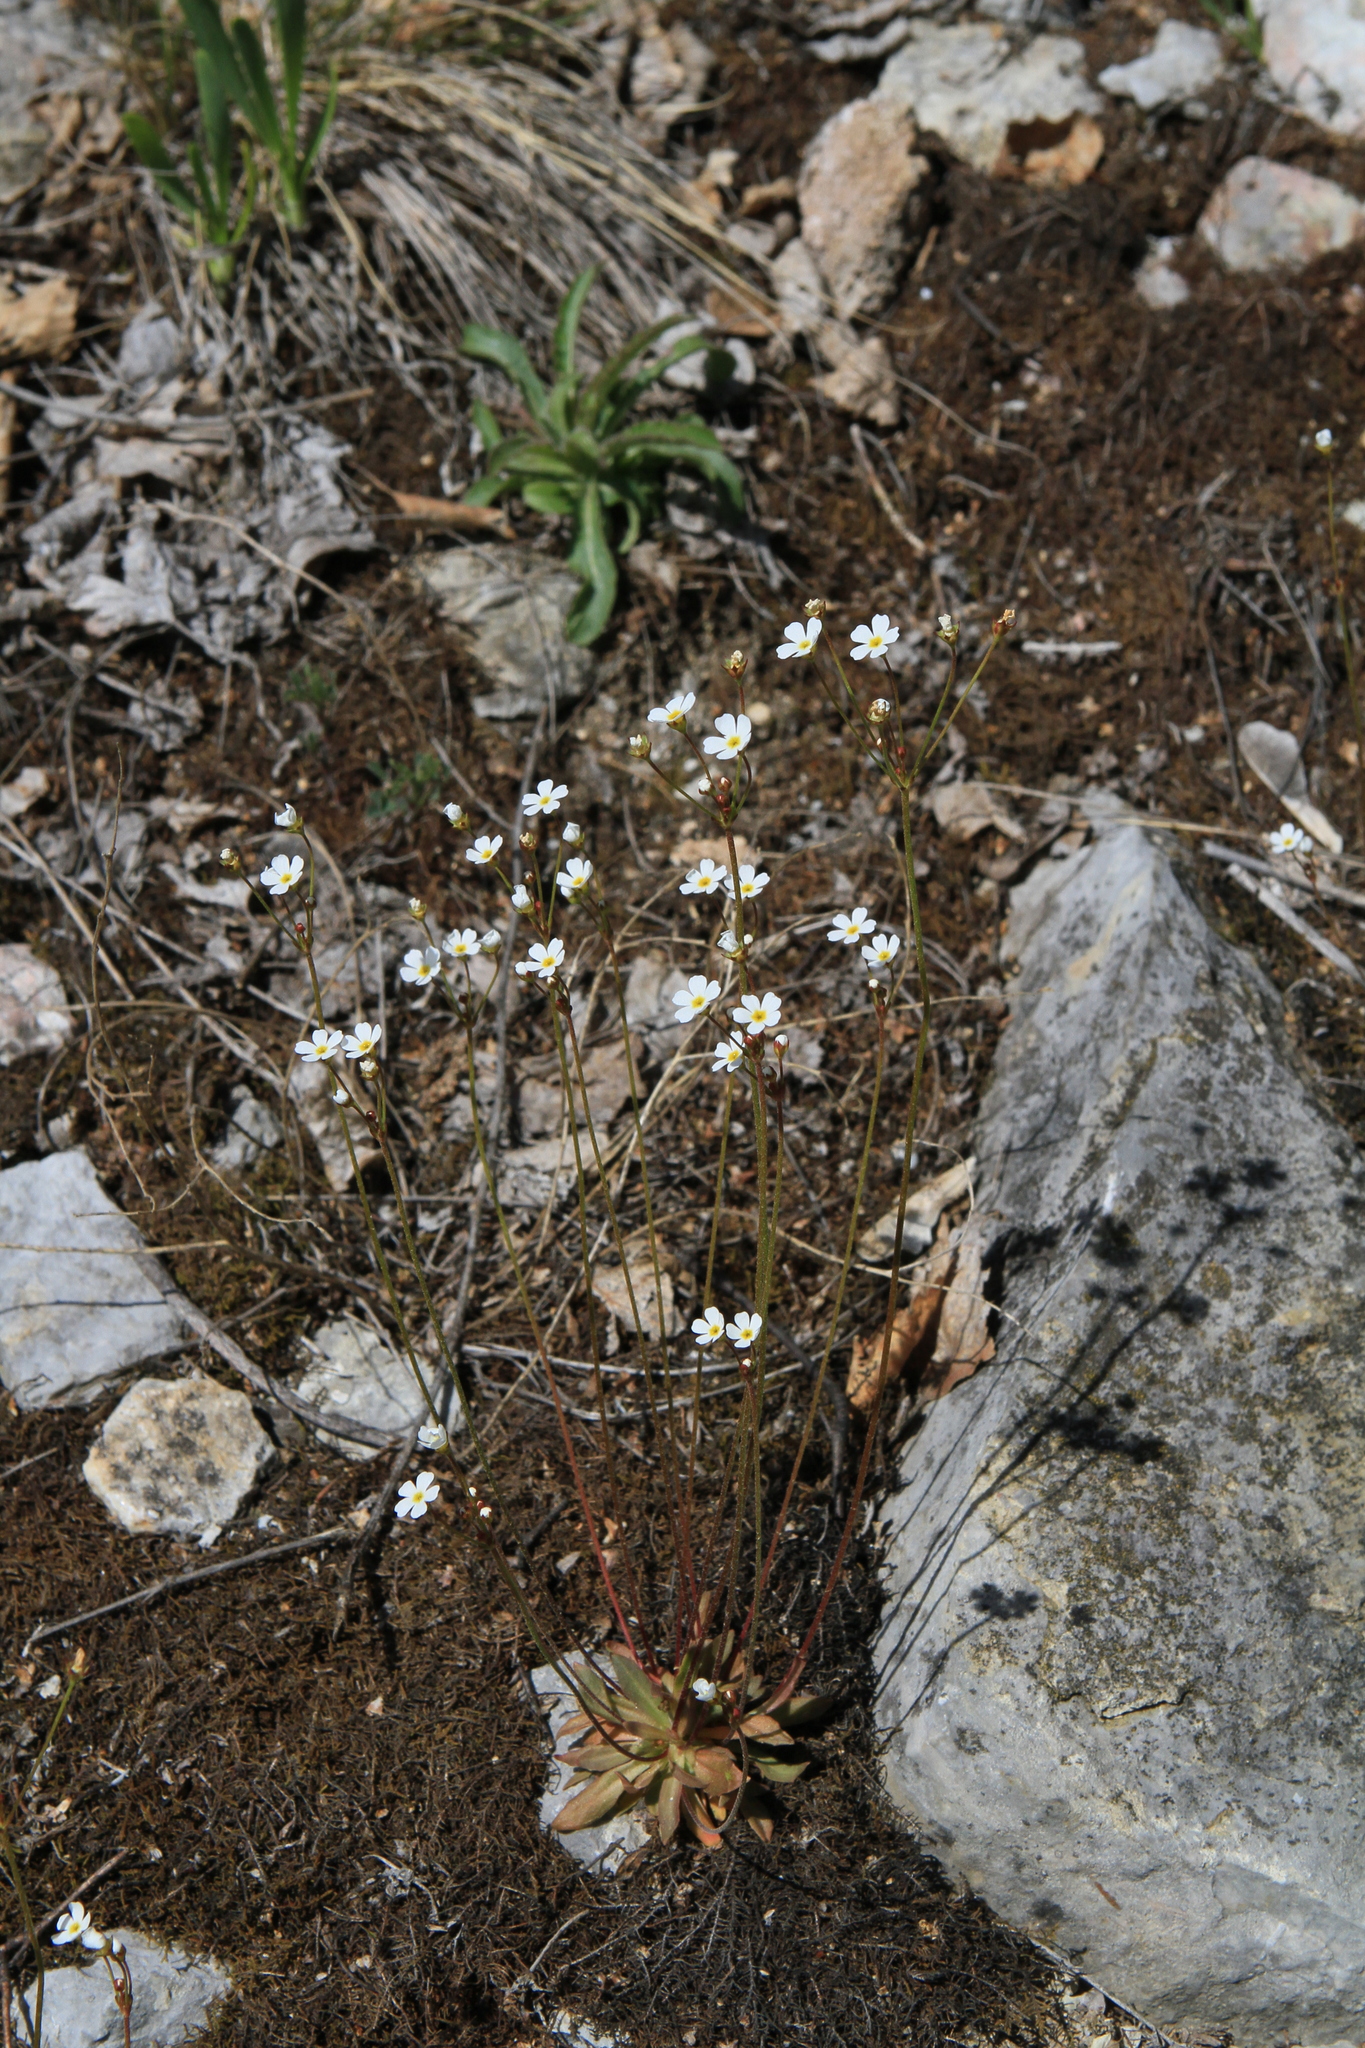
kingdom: Plantae
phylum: Tracheophyta
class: Magnoliopsida
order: Ericales
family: Primulaceae
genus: Androsace
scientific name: Androsace lactiflora
